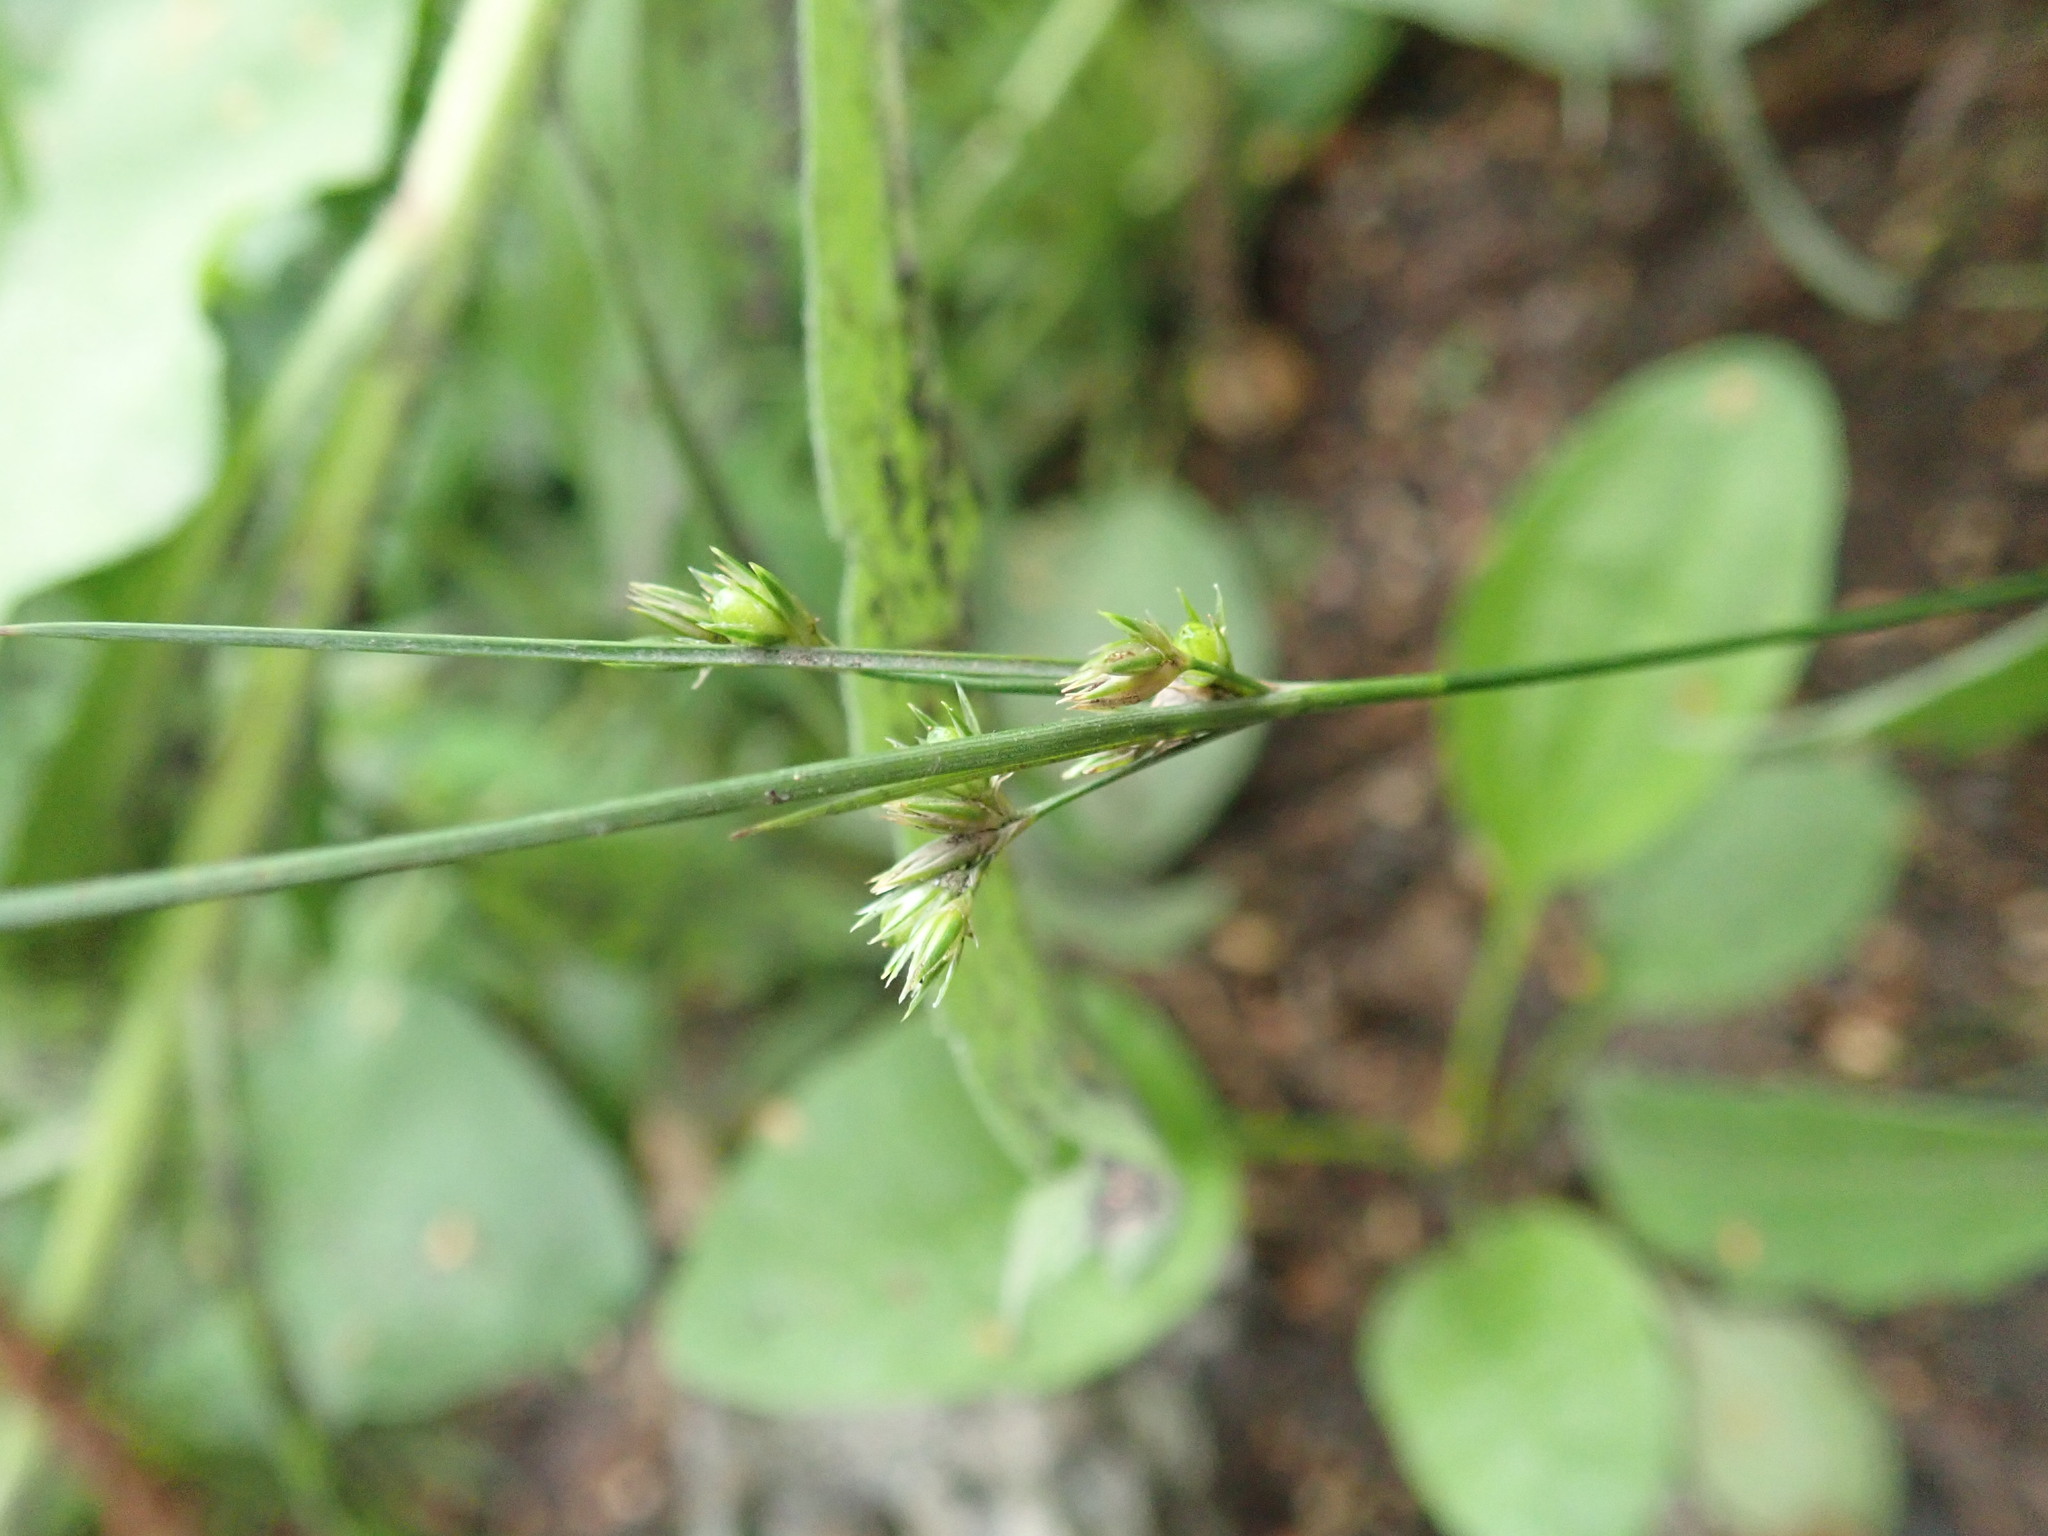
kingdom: Plantae
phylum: Tracheophyta
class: Liliopsida
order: Poales
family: Juncaceae
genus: Juncus
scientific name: Juncus tenuis
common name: Slender rush
